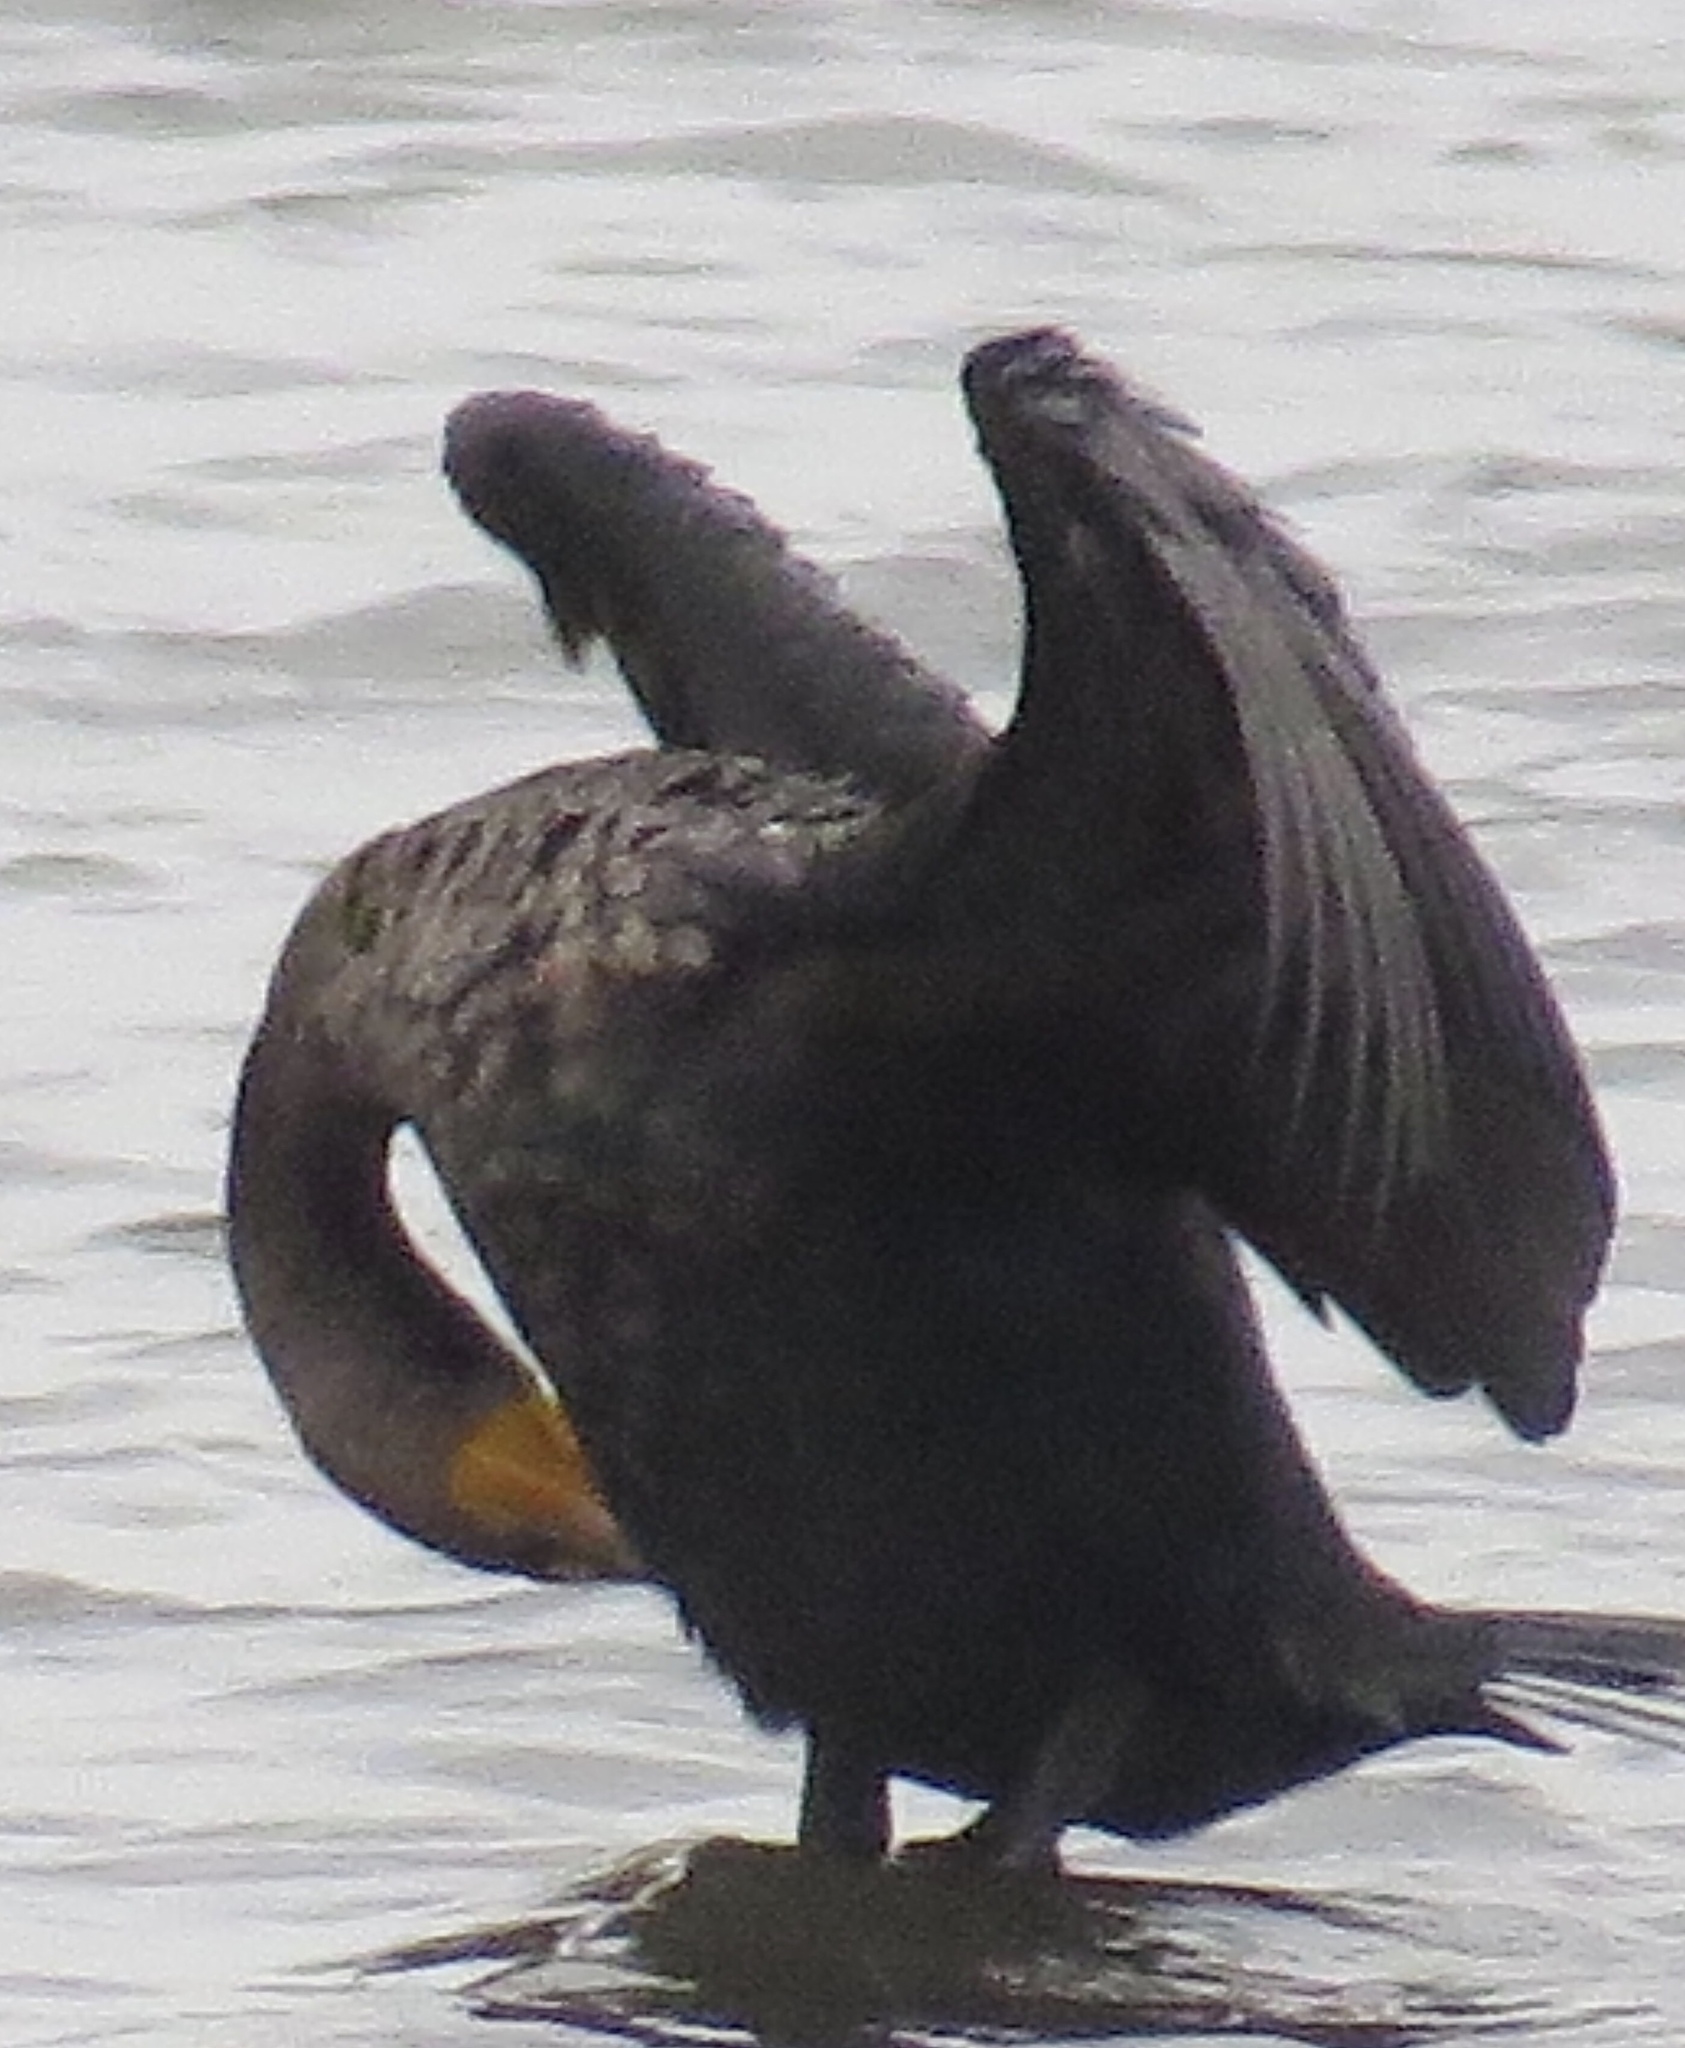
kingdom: Animalia
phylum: Chordata
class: Aves
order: Suliformes
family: Phalacrocoracidae
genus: Phalacrocorax
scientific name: Phalacrocorax auritus
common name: Double-crested cormorant
